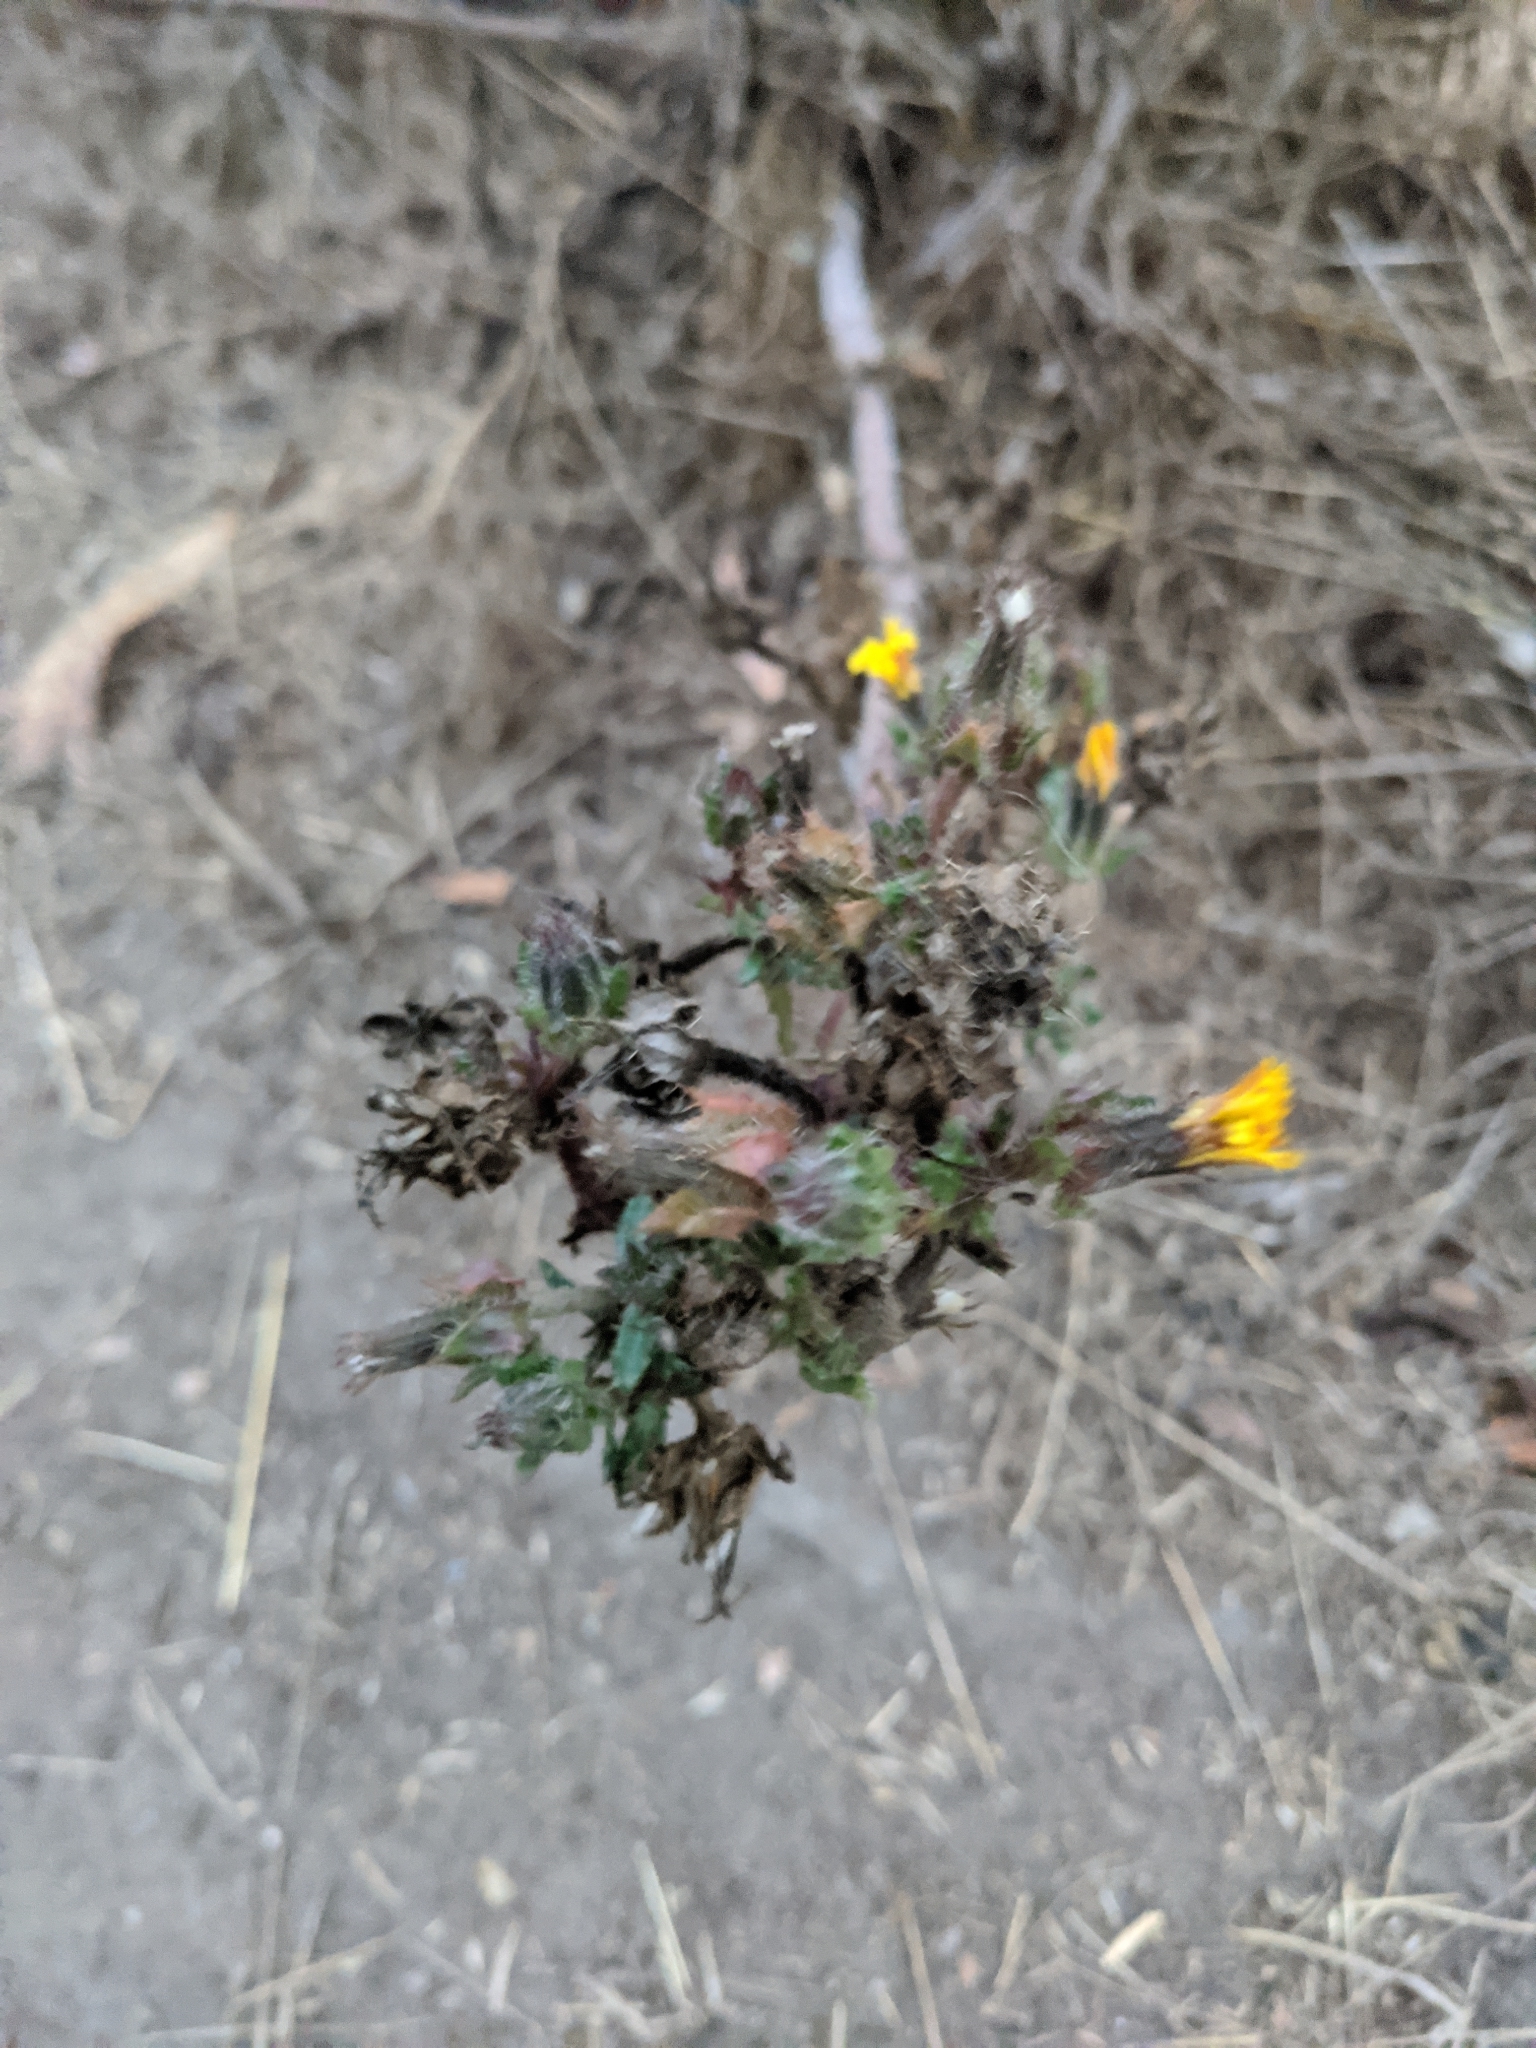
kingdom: Plantae
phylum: Tracheophyta
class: Magnoliopsida
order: Asterales
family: Asteraceae
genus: Helminthotheca
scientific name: Helminthotheca echioides
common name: Ox-tongue
